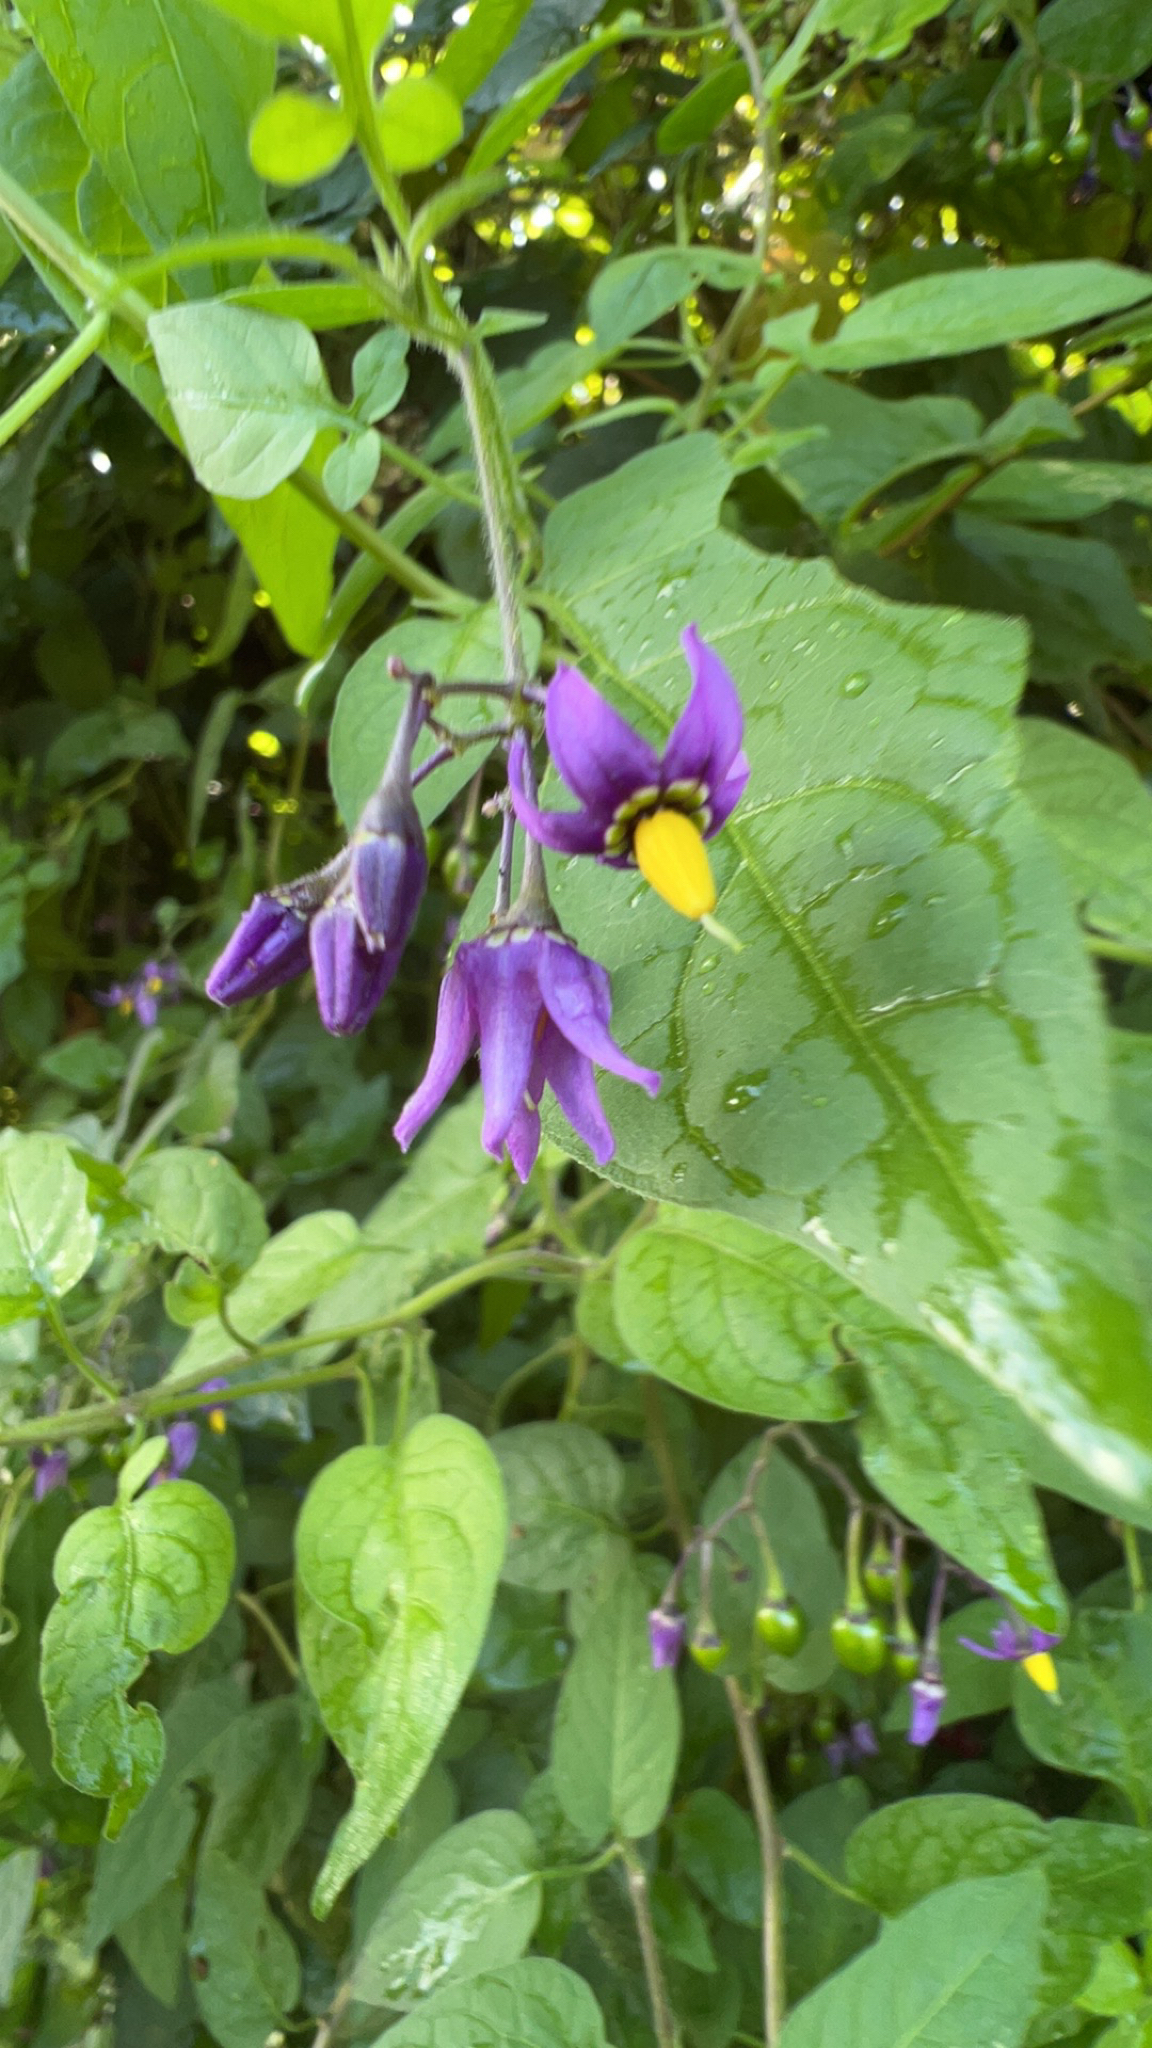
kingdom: Plantae
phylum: Tracheophyta
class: Magnoliopsida
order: Solanales
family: Solanaceae
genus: Solanum
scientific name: Solanum dulcamara
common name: Climbing nightshade
